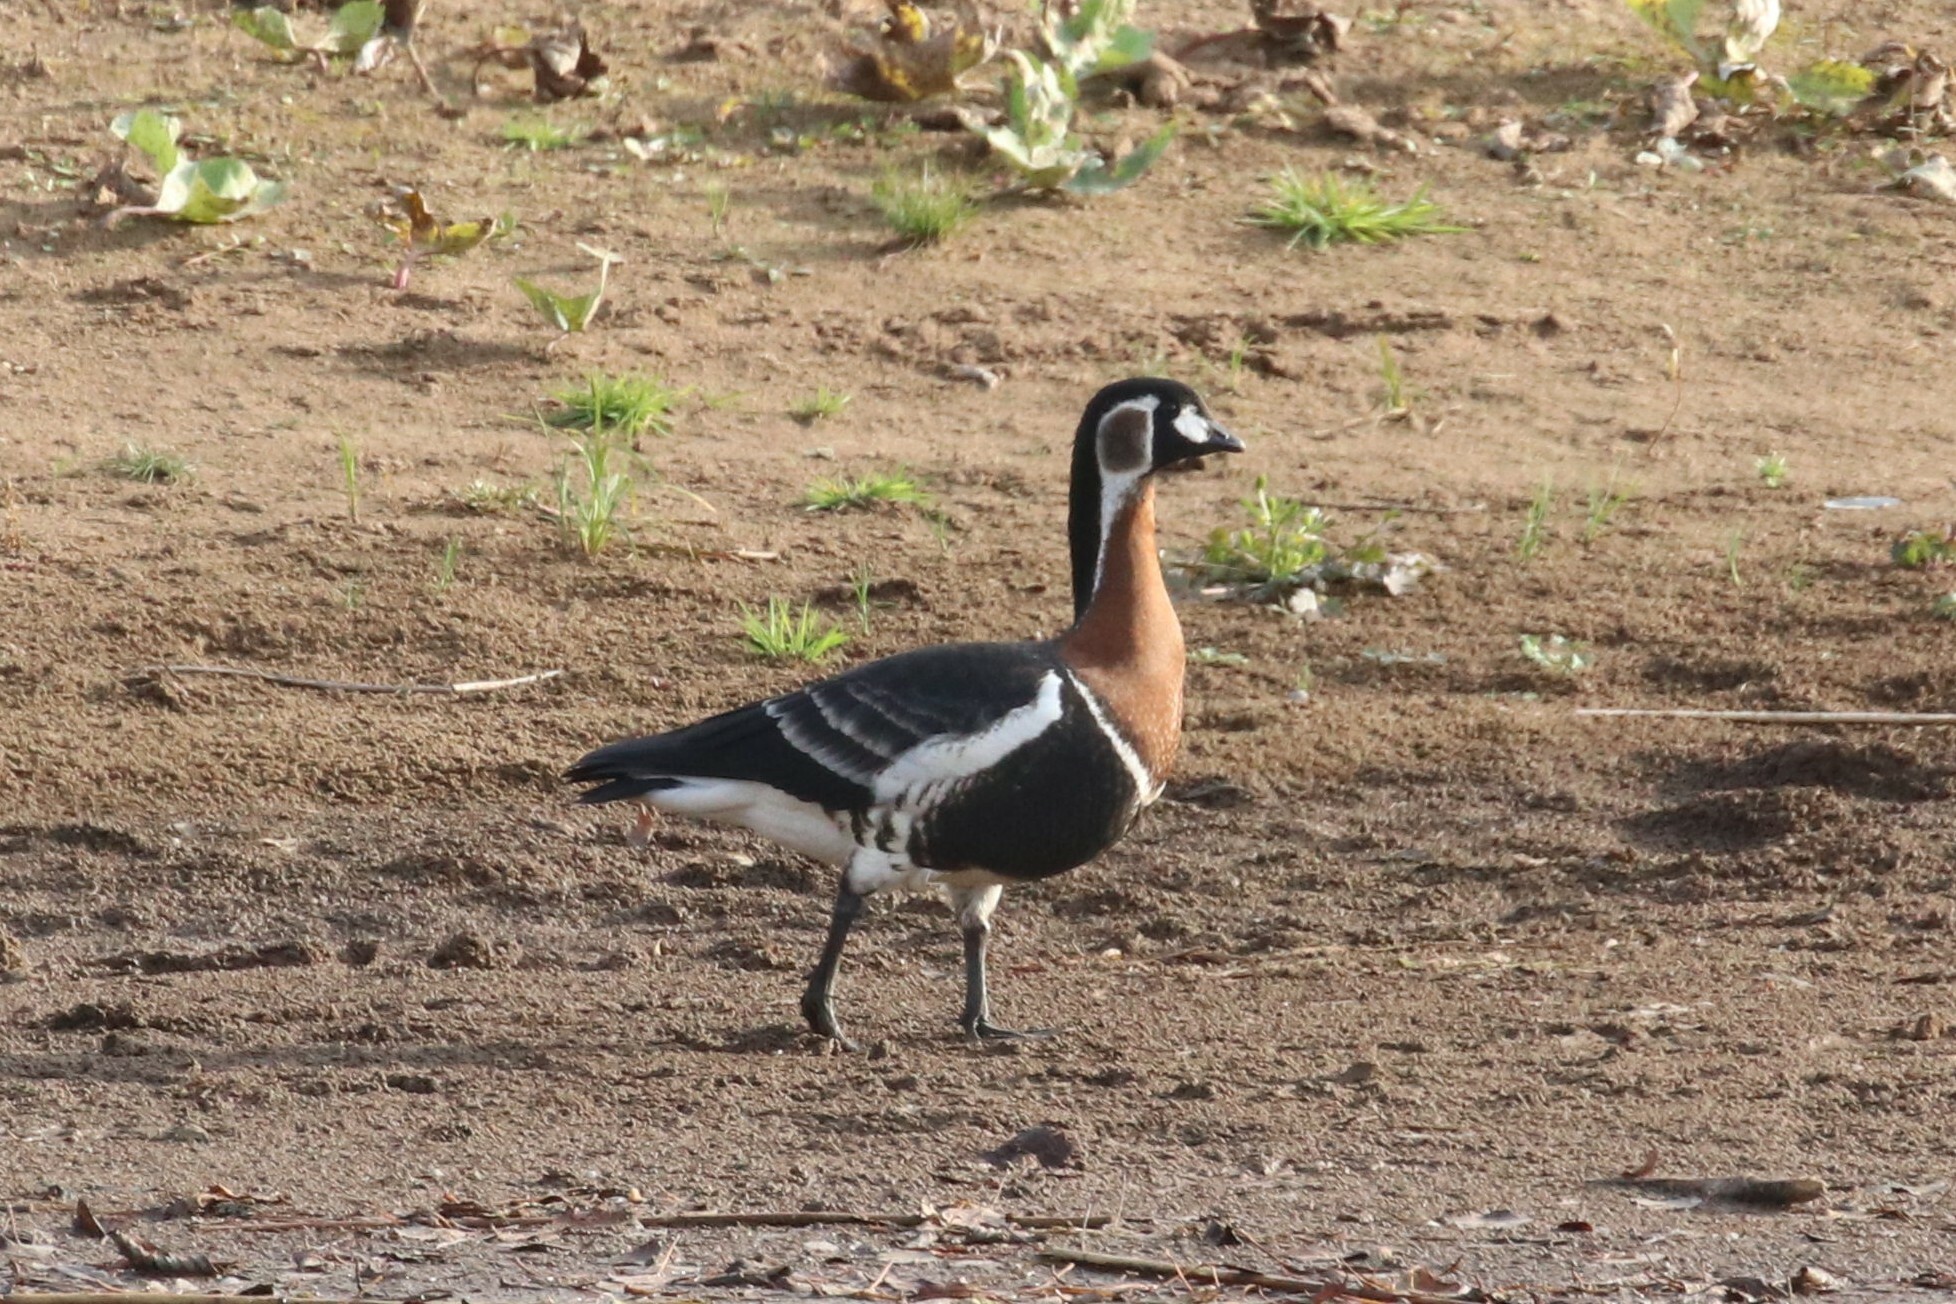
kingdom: Animalia
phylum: Chordata
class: Aves
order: Anseriformes
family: Anatidae
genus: Branta
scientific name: Branta ruficollis
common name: Red-breasted goose
